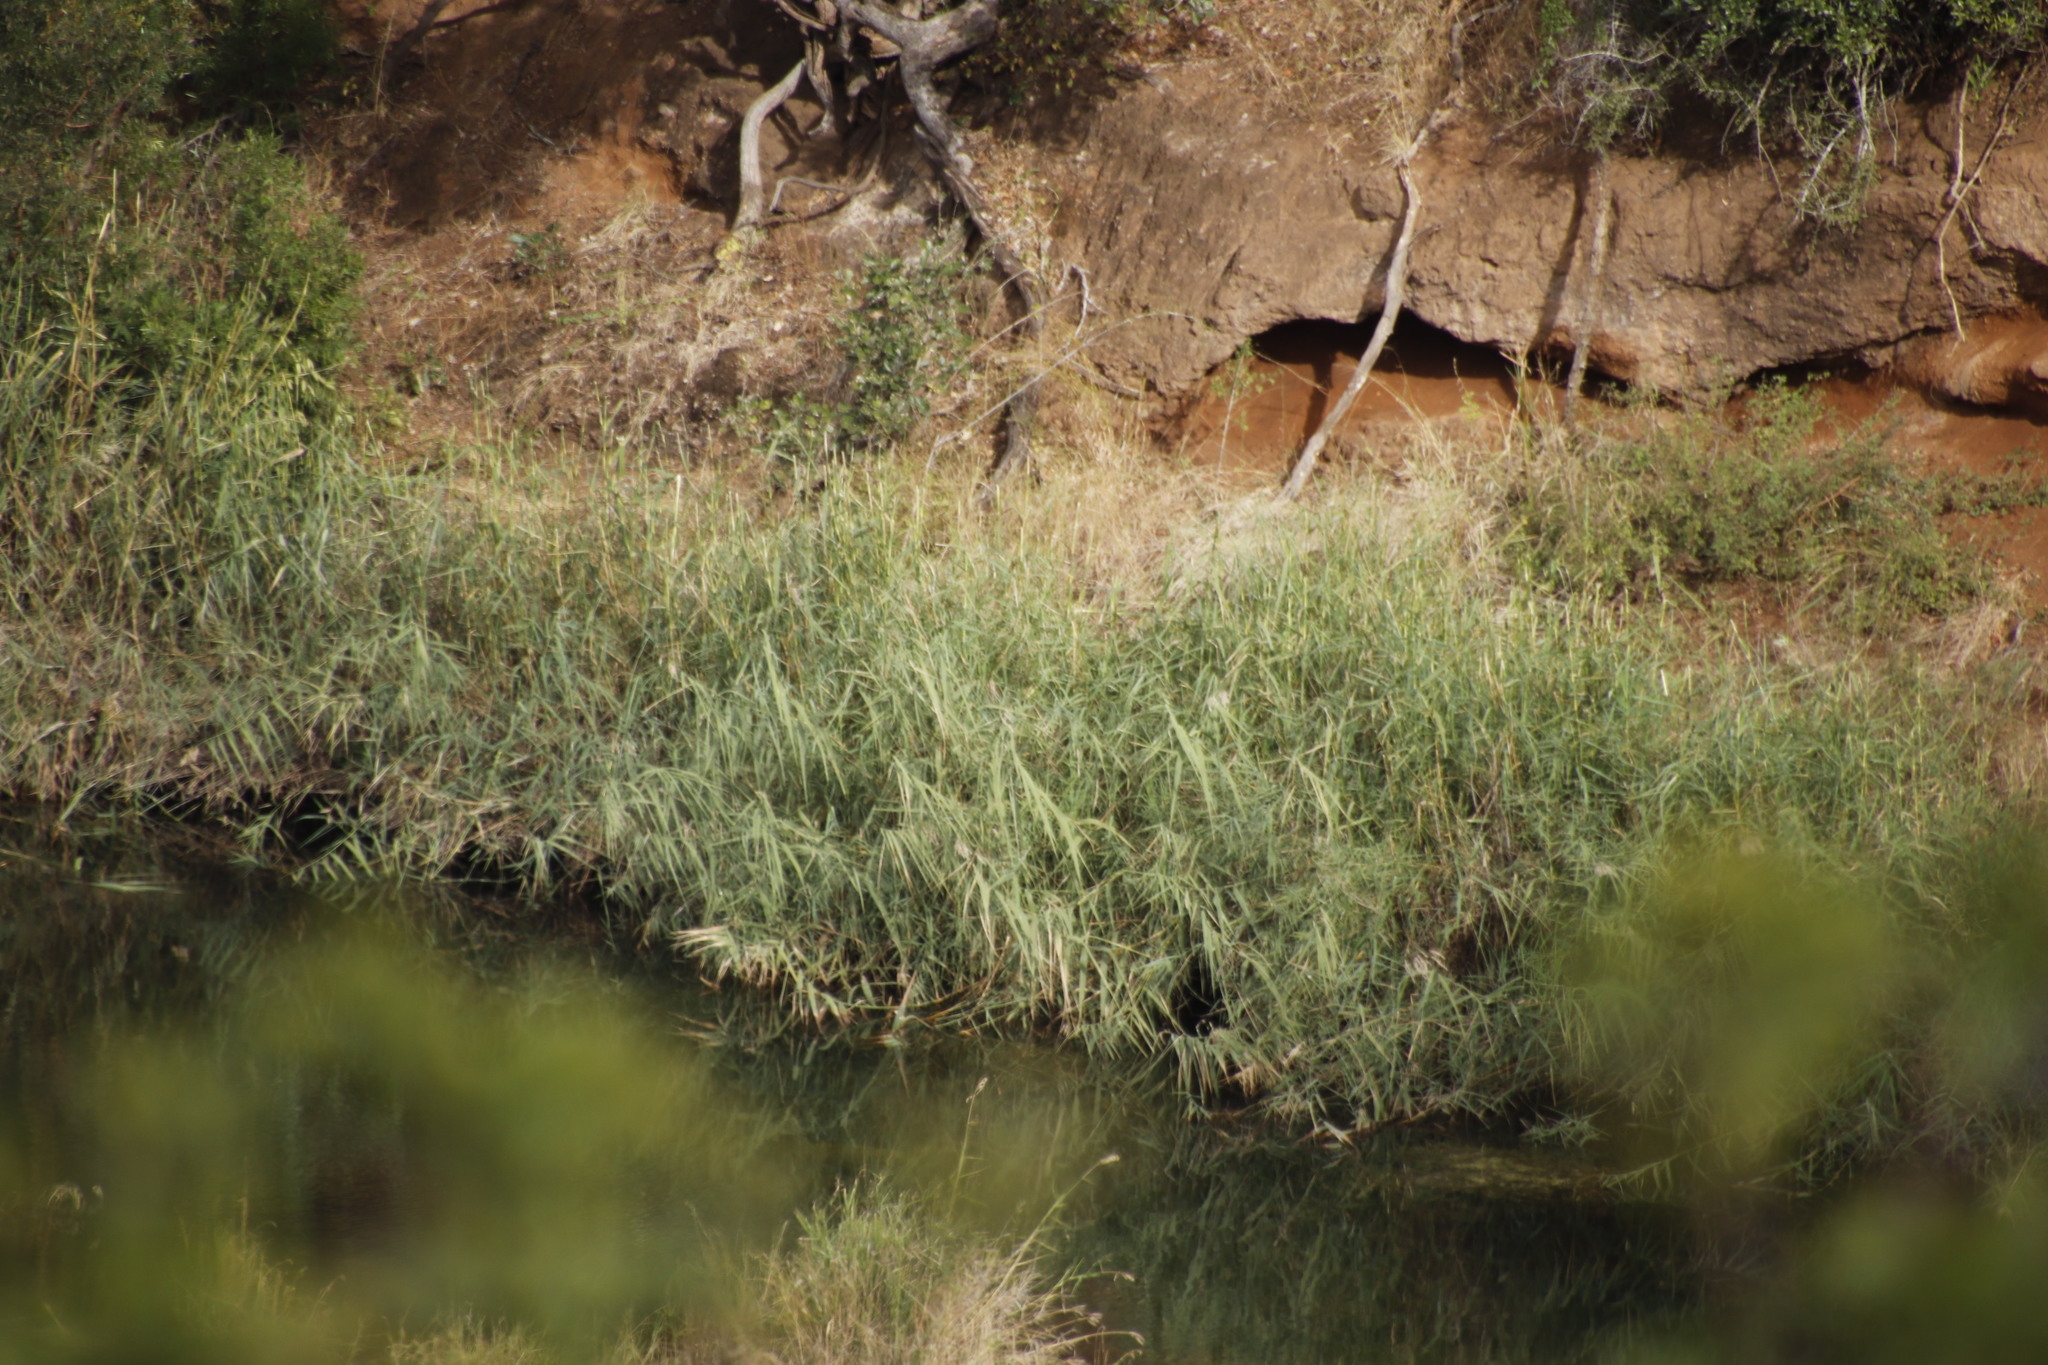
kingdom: Plantae
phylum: Tracheophyta
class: Liliopsida
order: Poales
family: Poaceae
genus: Phragmites
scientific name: Phragmites mauritianus
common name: Reed grass
